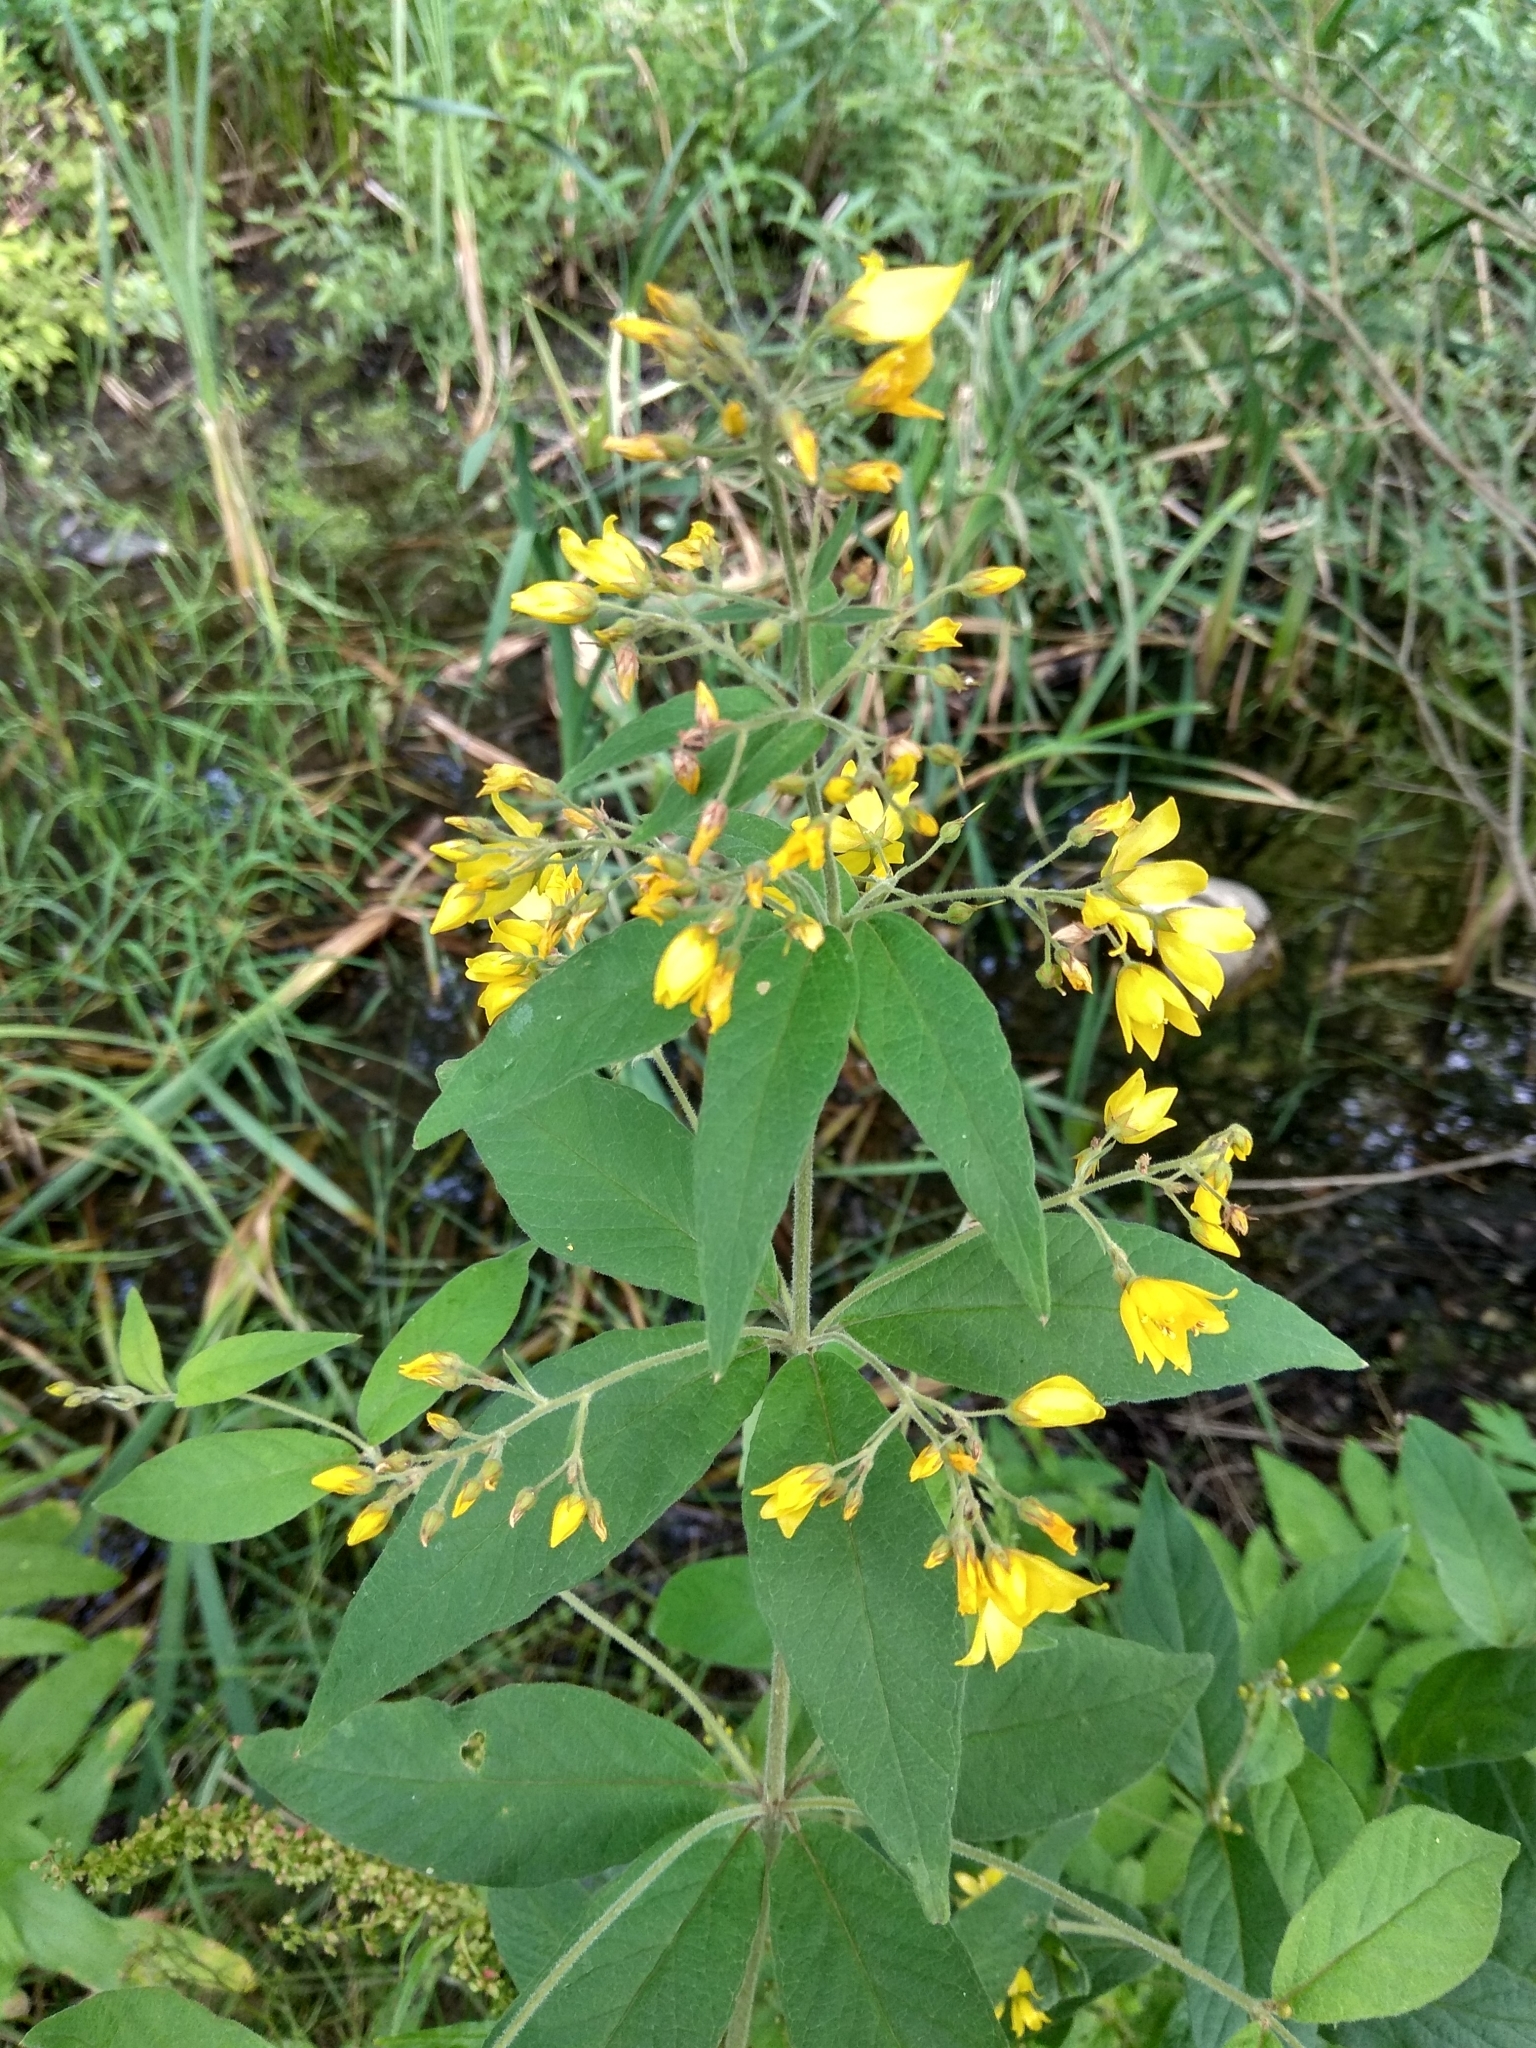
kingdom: Plantae
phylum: Tracheophyta
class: Magnoliopsida
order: Ericales
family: Primulaceae
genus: Lysimachia
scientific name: Lysimachia vulgaris
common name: Yellow loosestrife
